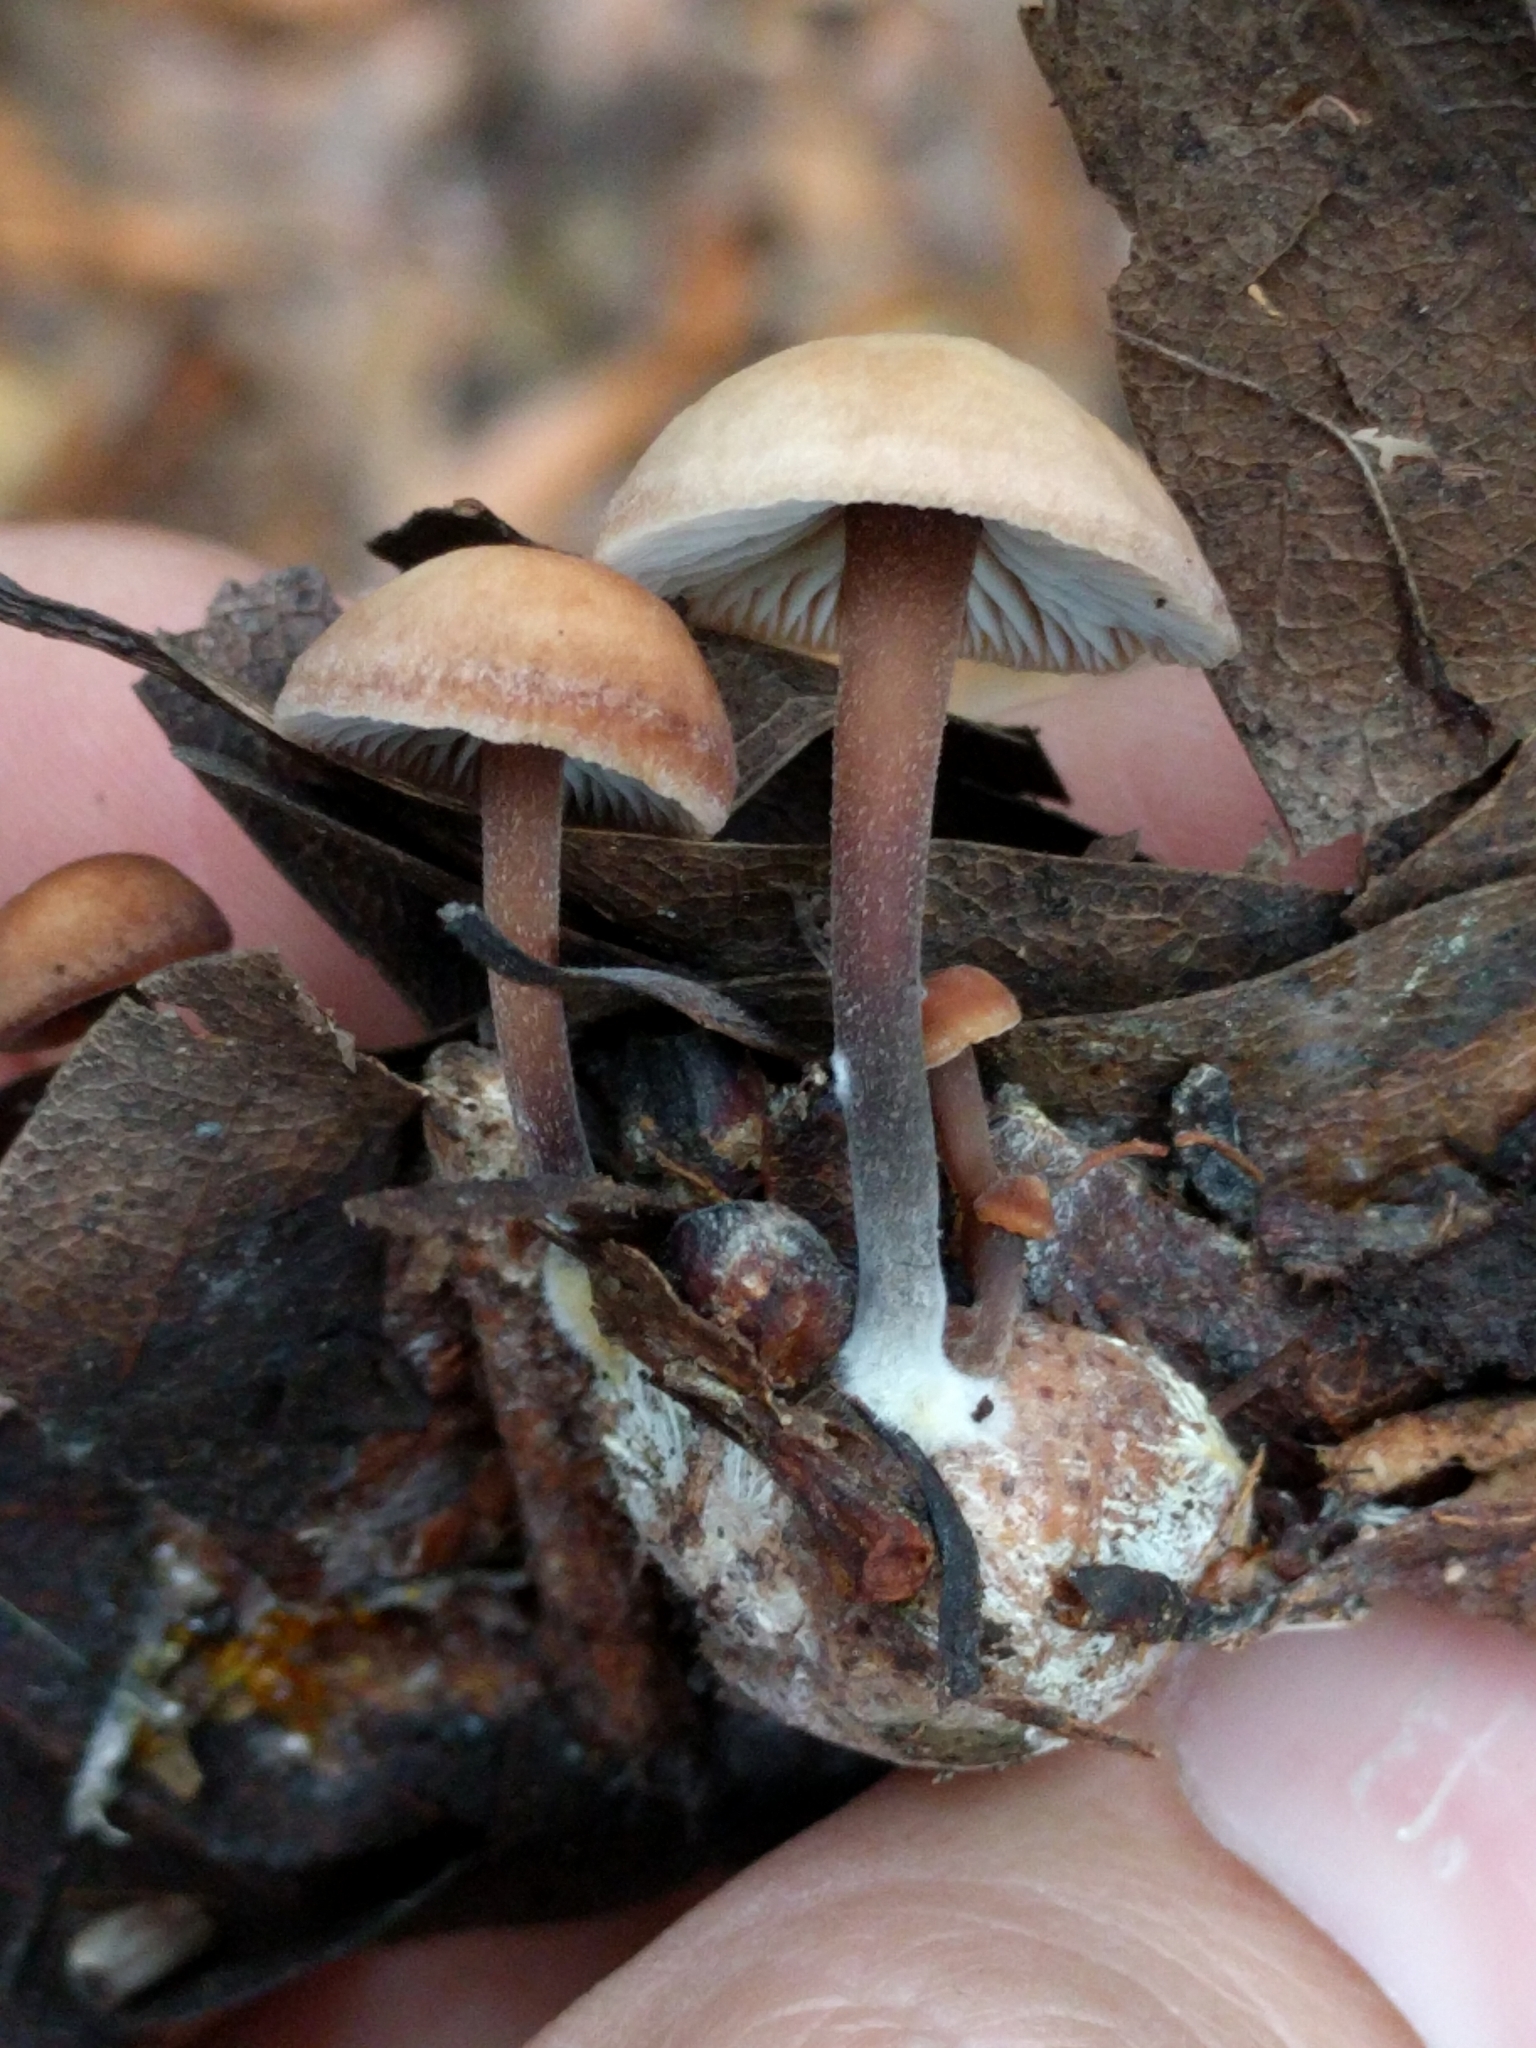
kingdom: Fungi
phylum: Basidiomycota
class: Agaricomycetes
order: Agaricales
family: Omphalotaceae
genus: Gymnopus
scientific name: Gymnopus brassicolens
